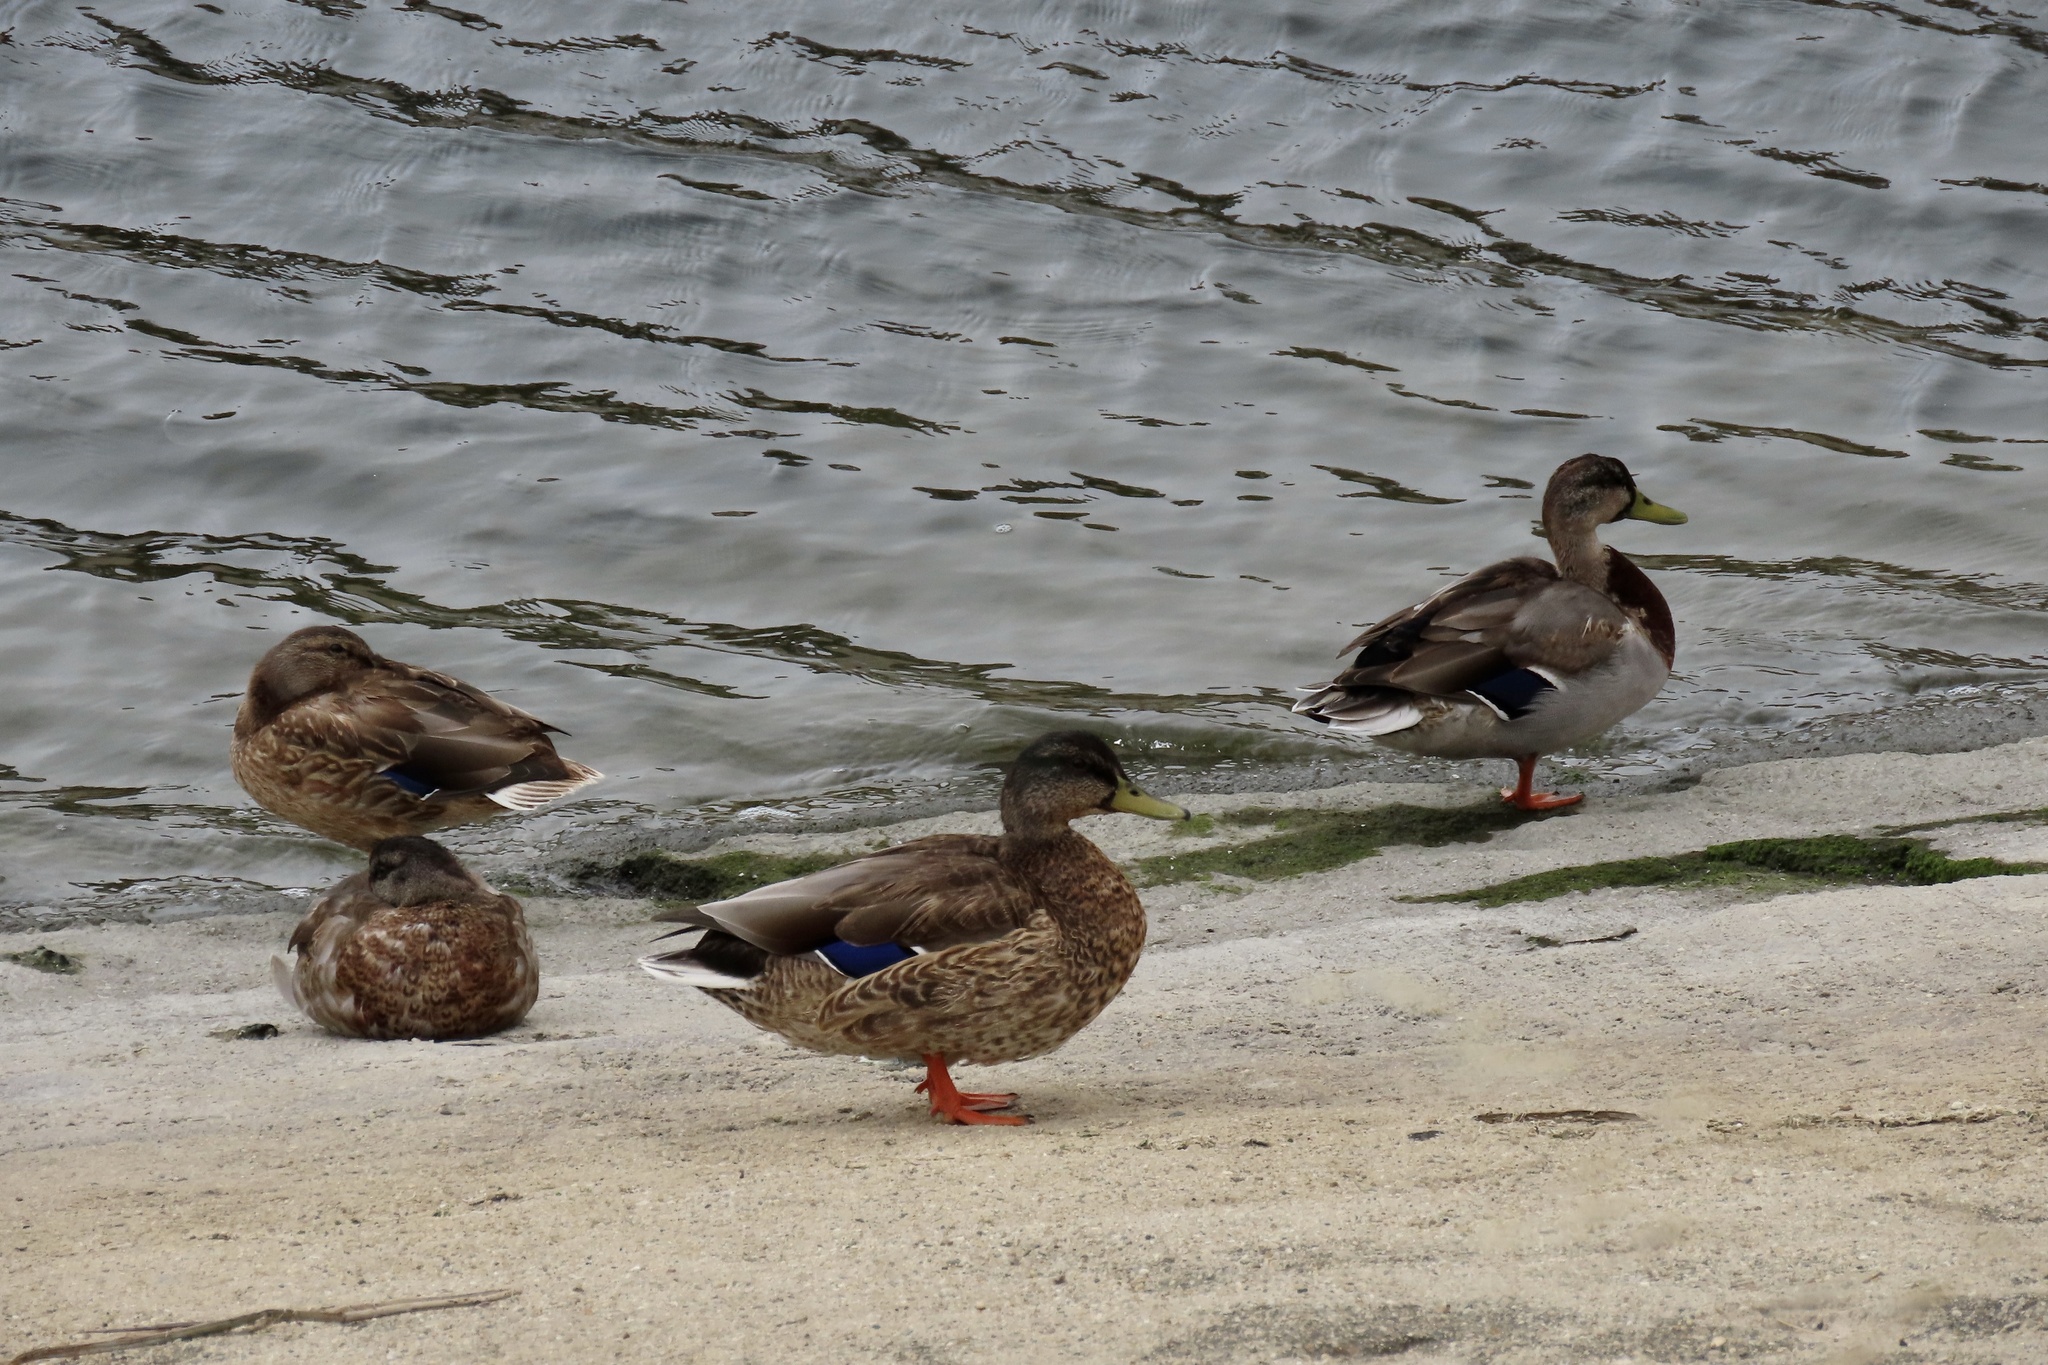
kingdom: Animalia
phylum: Chordata
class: Aves
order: Anseriformes
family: Anatidae
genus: Anas
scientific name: Anas platyrhynchos
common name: Mallard
